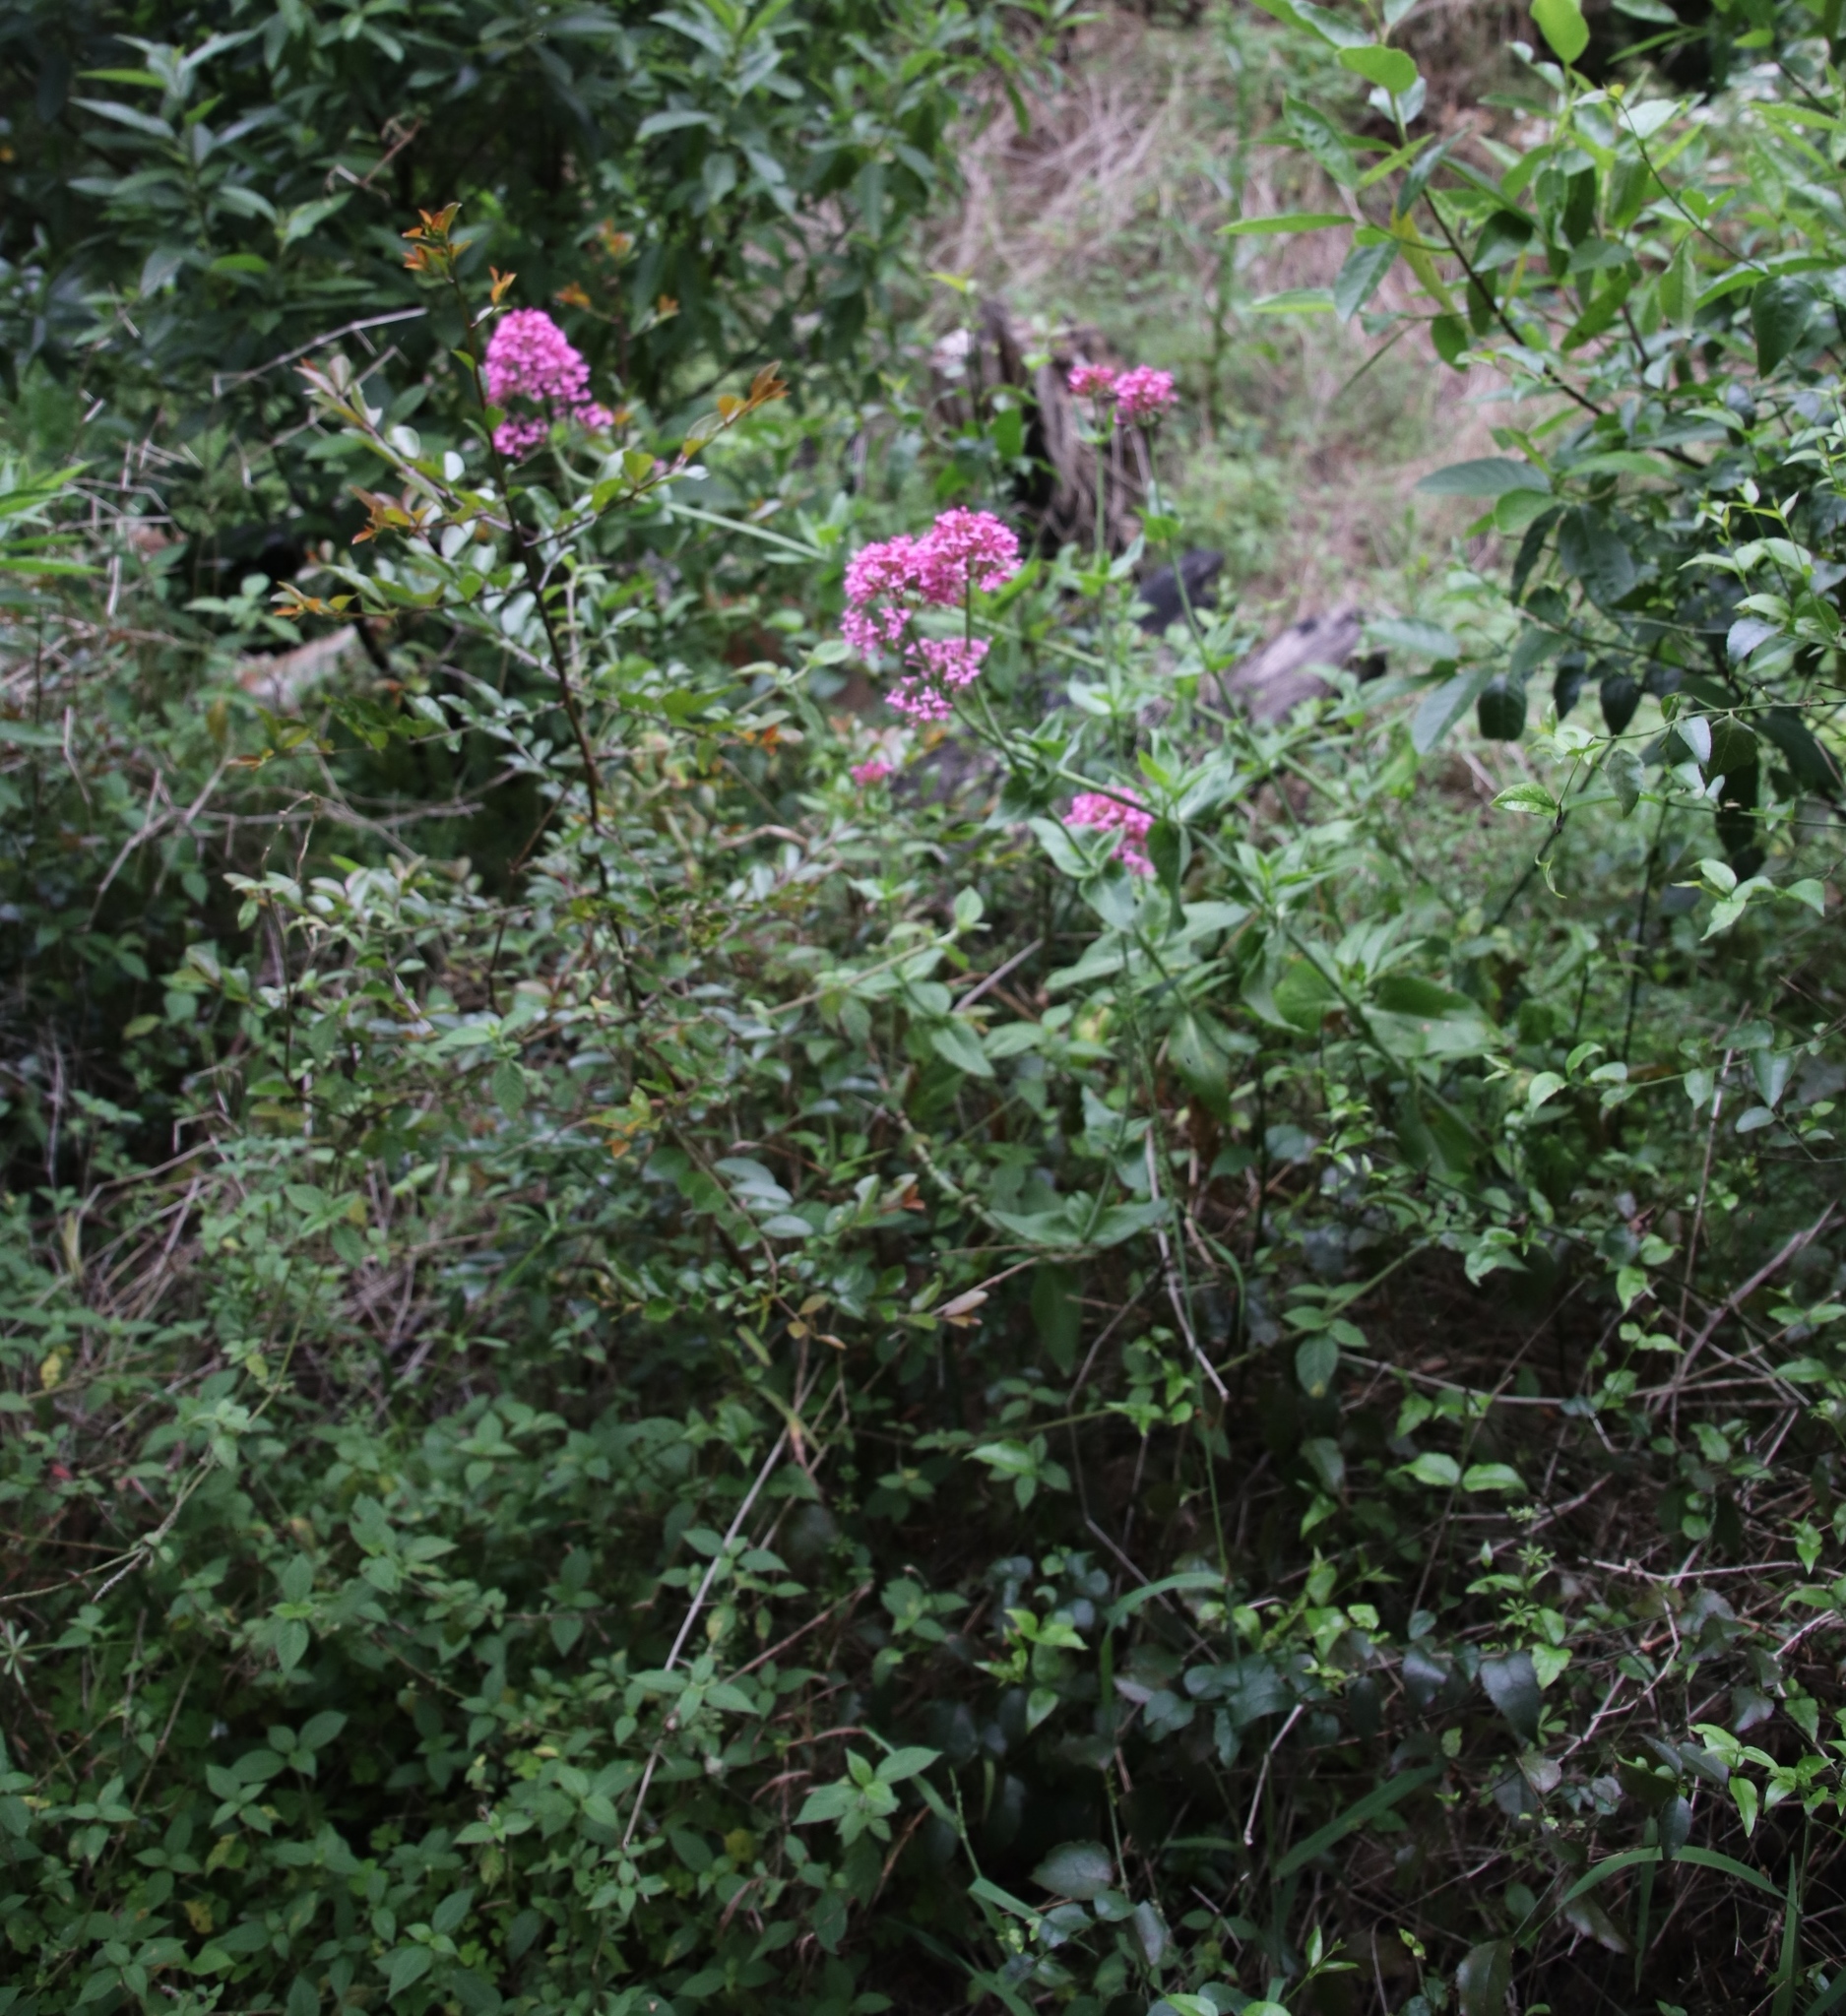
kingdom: Plantae
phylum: Tracheophyta
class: Magnoliopsida
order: Dipsacales
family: Caprifoliaceae
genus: Centranthus
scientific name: Centranthus ruber
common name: Red valerian
